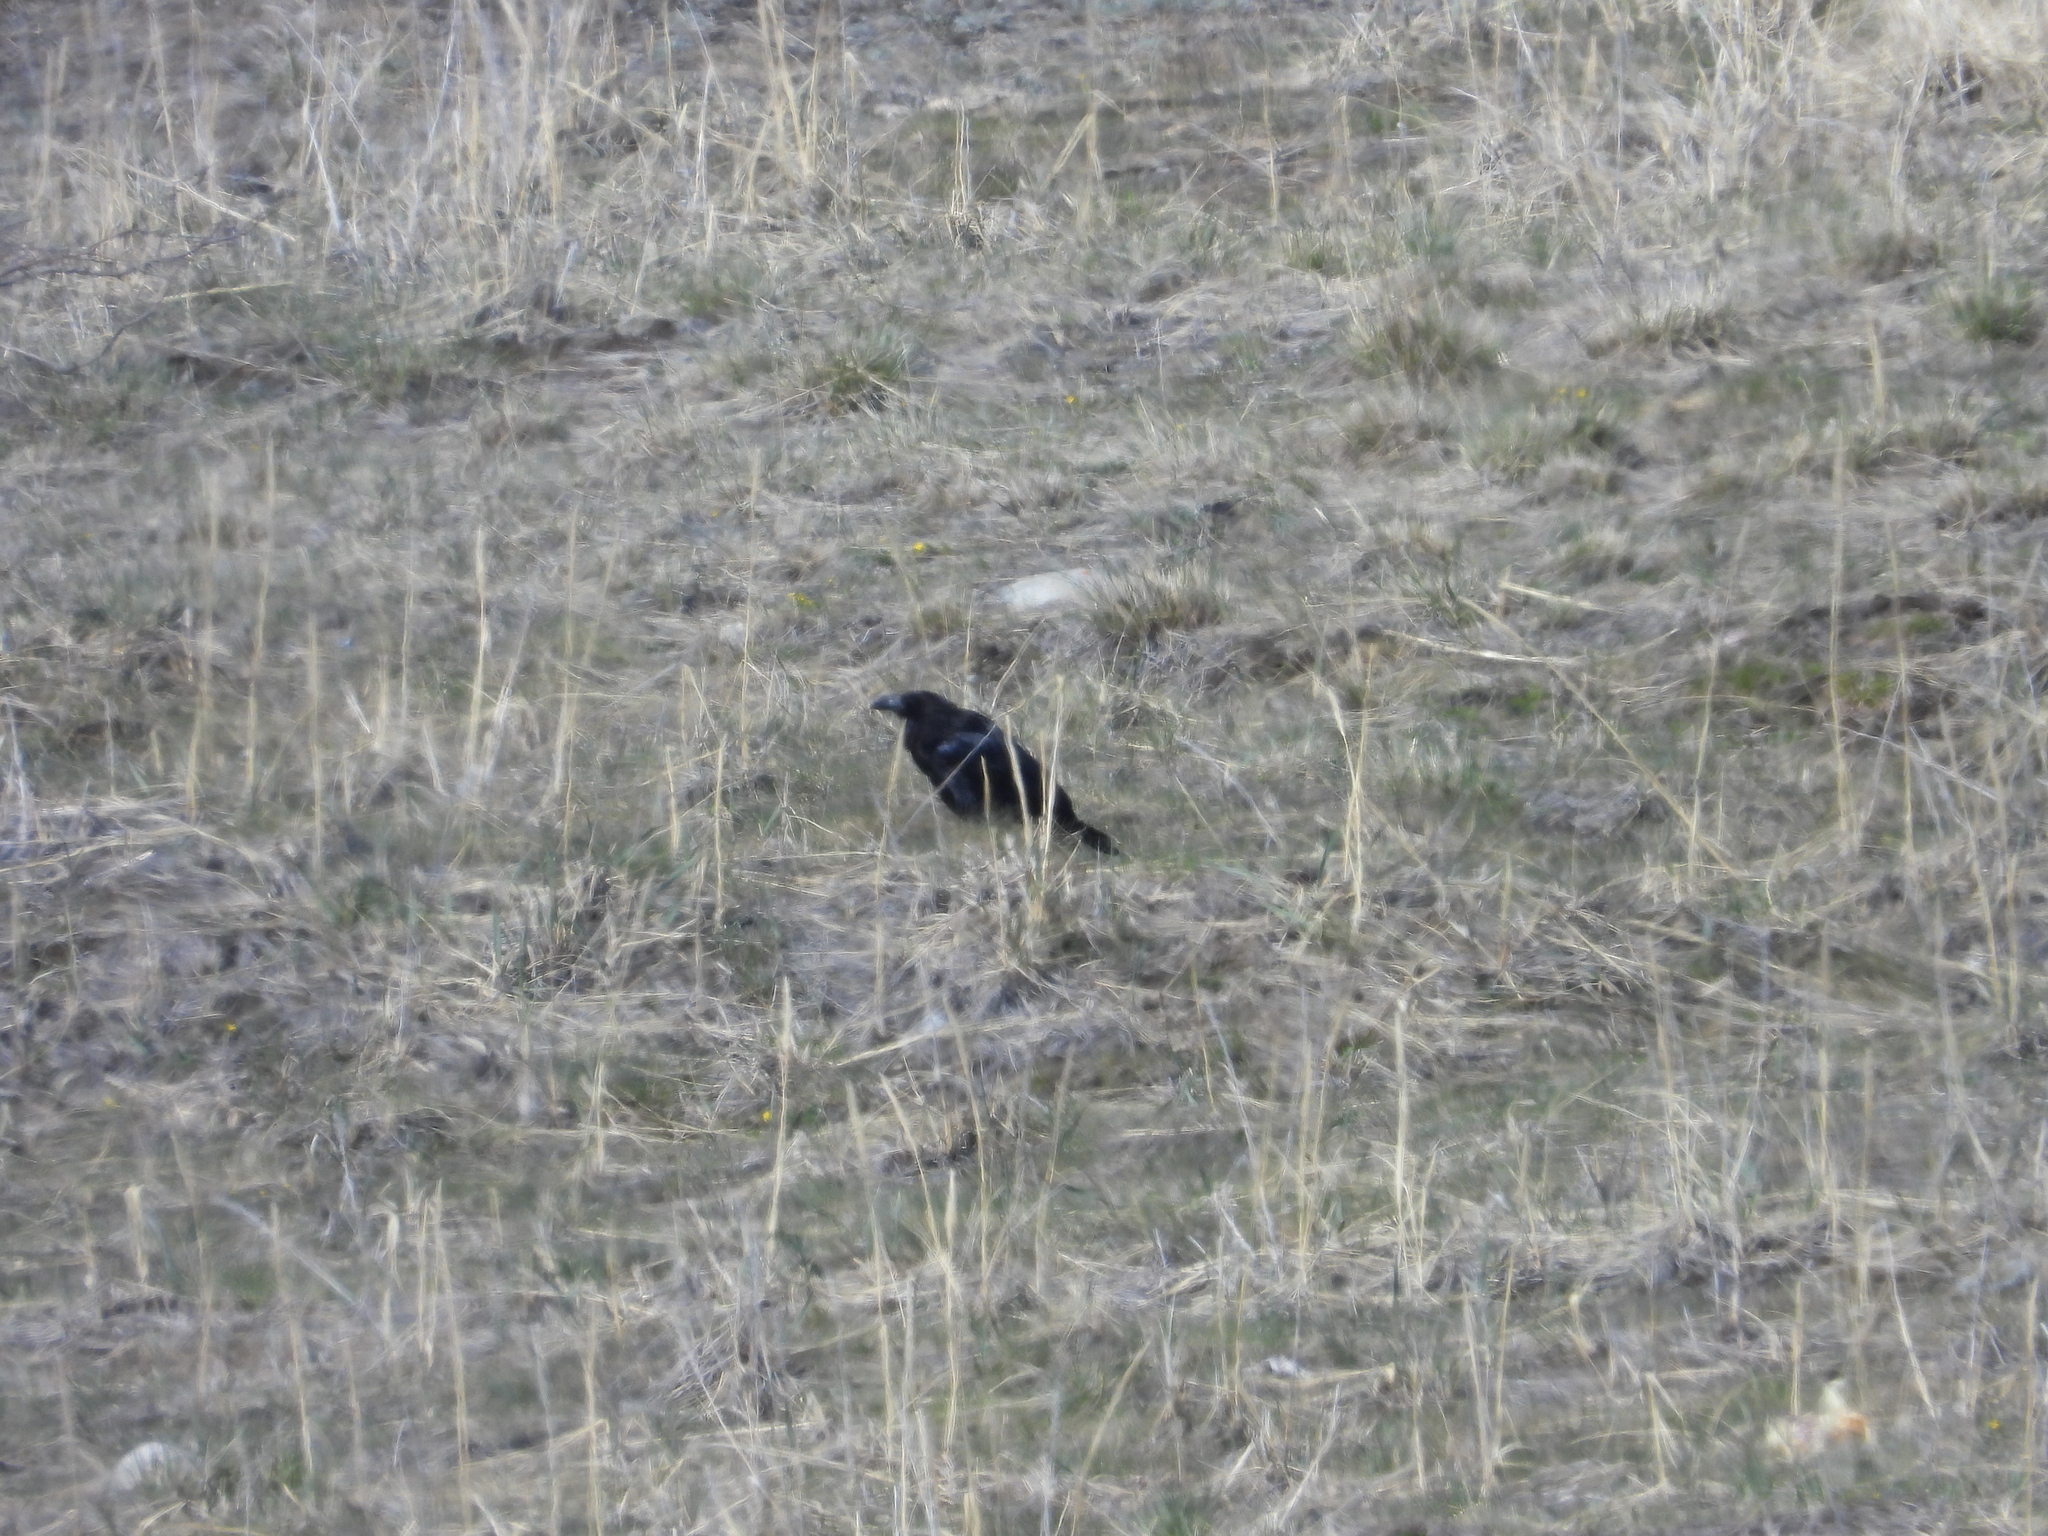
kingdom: Animalia
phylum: Chordata
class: Aves
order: Passeriformes
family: Corvidae
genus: Corvus
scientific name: Corvus corax
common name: Common raven
